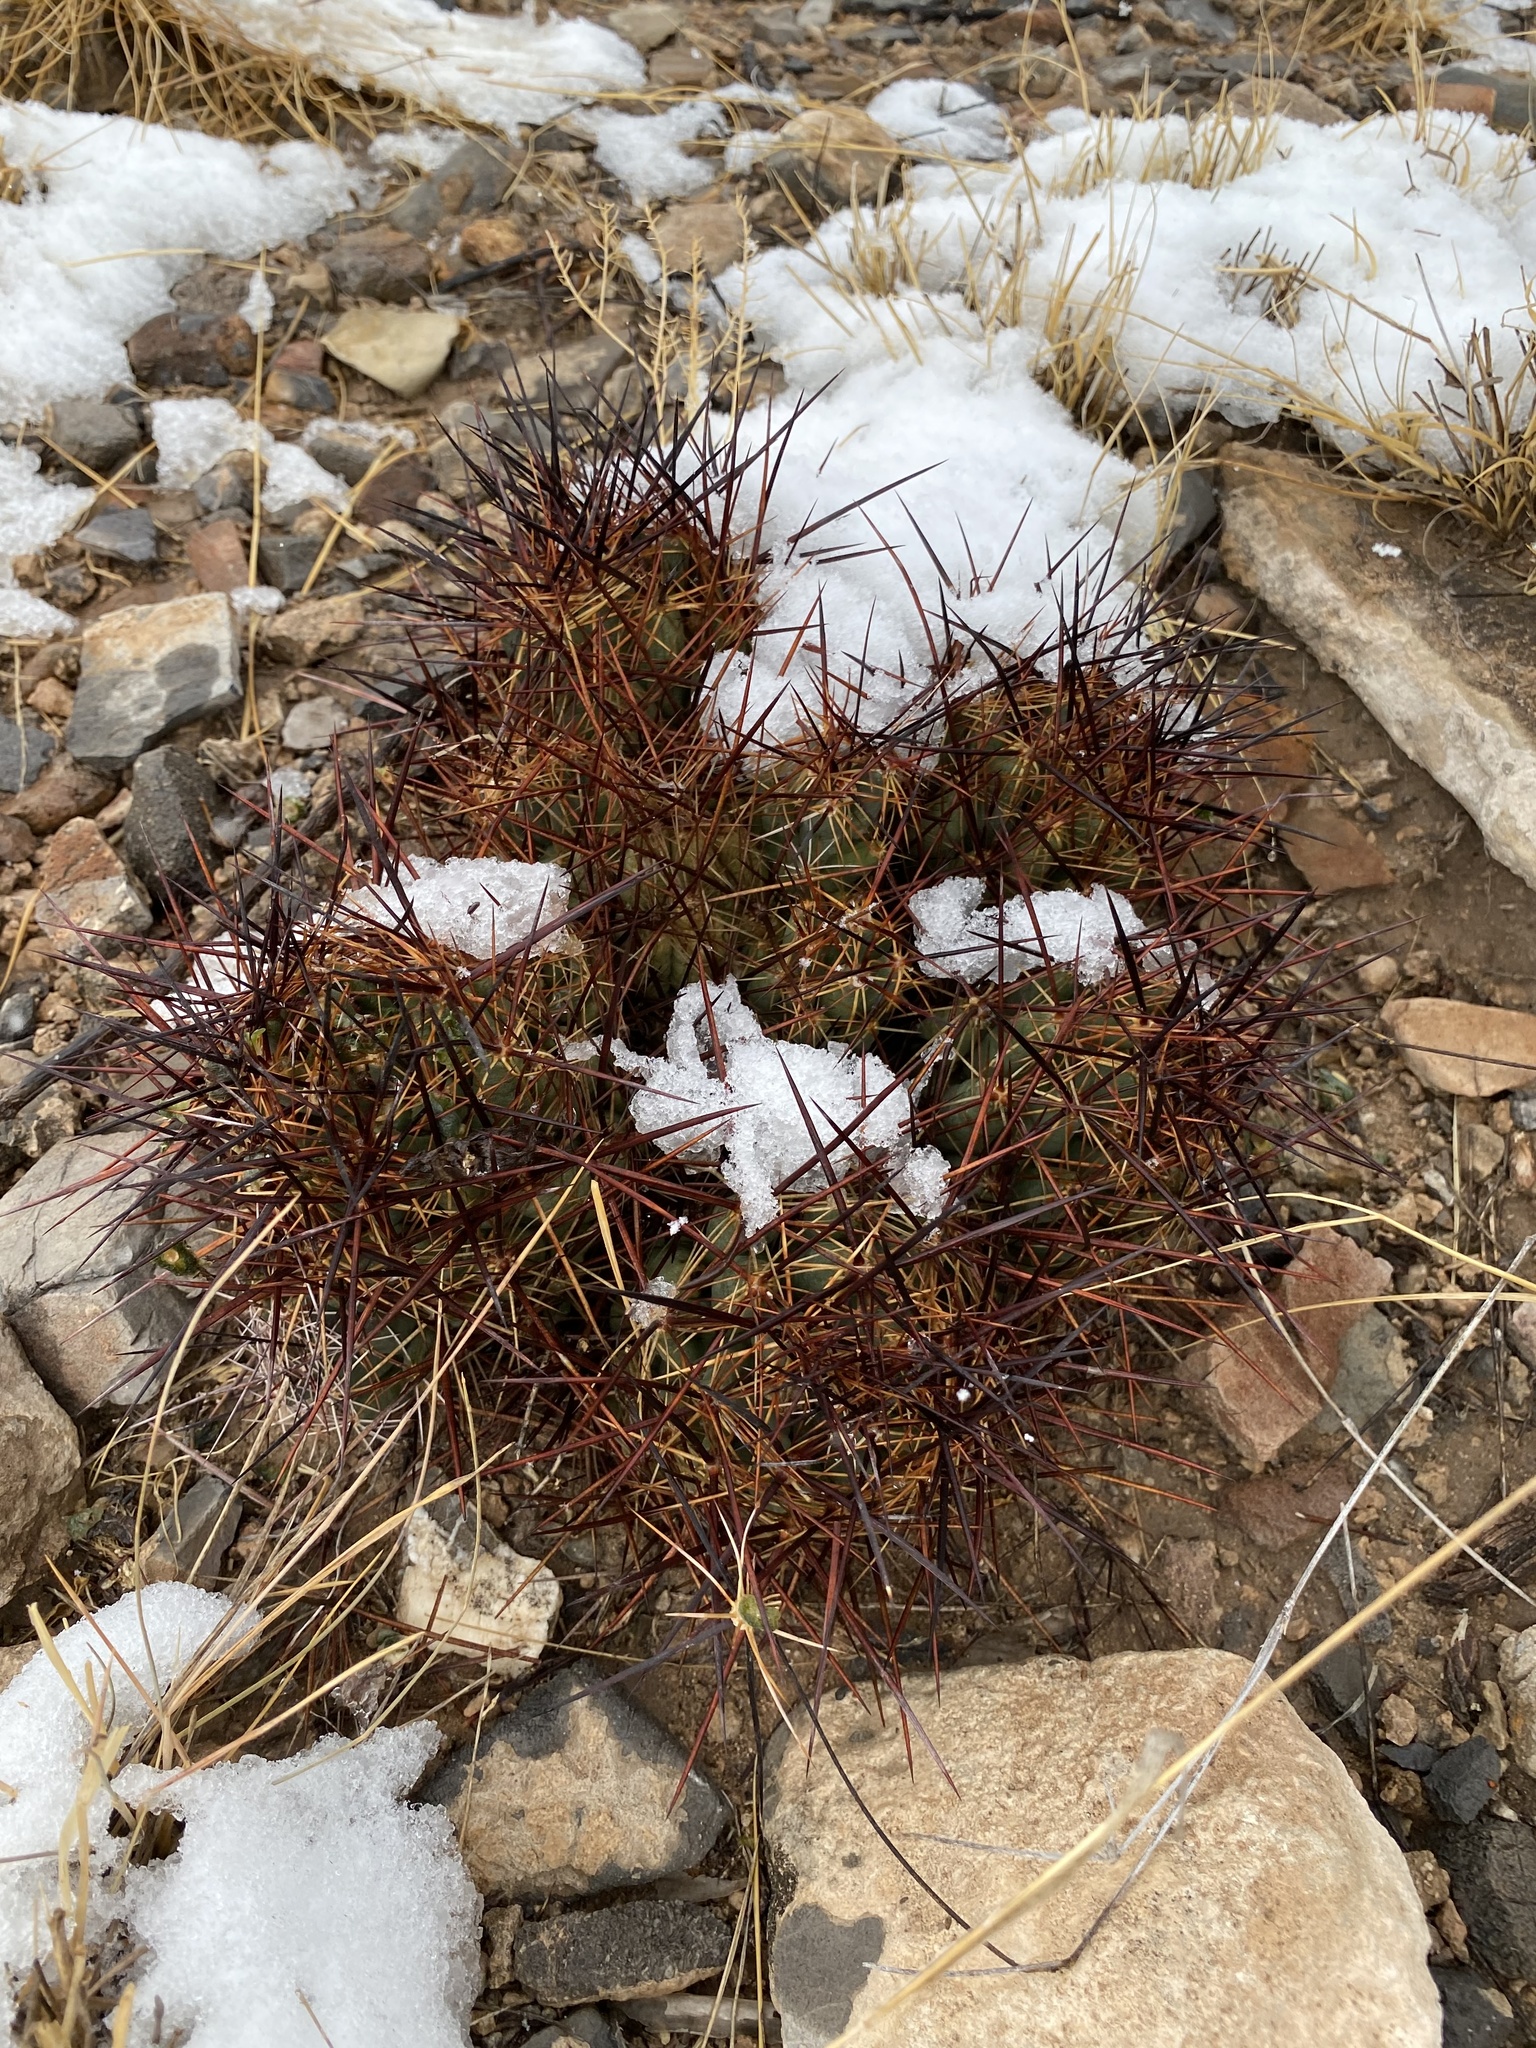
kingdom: Plantae
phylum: Tracheophyta
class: Magnoliopsida
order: Caryophyllales
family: Cactaceae
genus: Coryphantha
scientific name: Coryphantha macromeris
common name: Nipple beehive cactus
